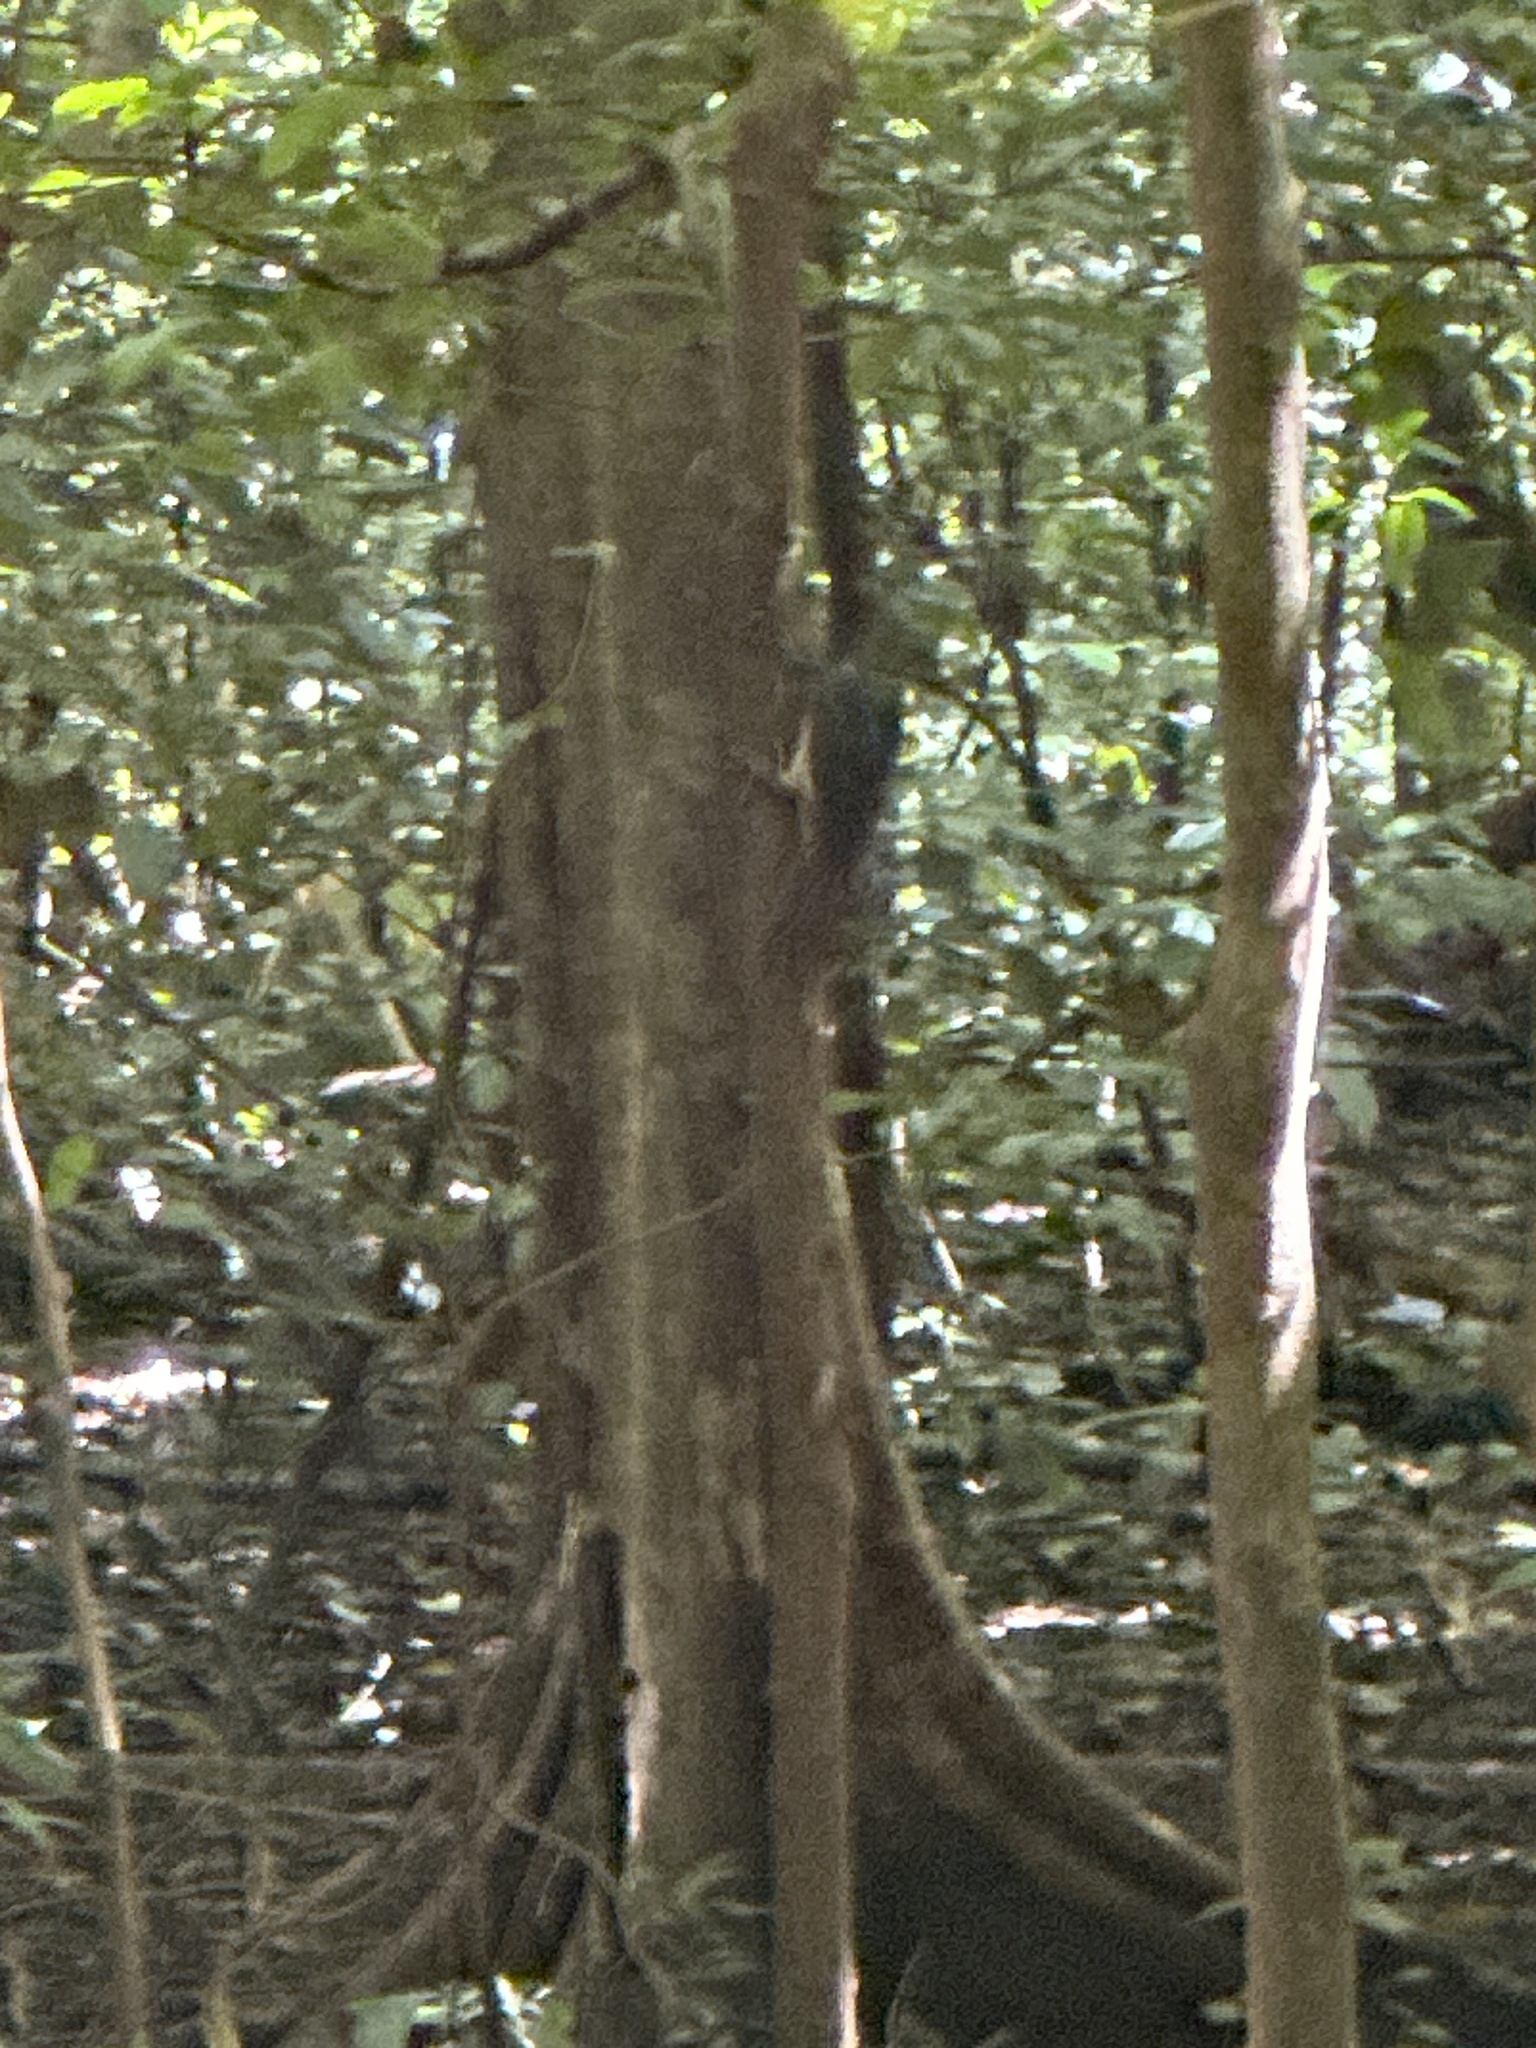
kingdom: Animalia
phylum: Chordata
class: Aves
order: Piciformes
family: Picidae
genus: Mulleripicus
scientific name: Mulleripicus fulvus
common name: Ashy woodpecker
